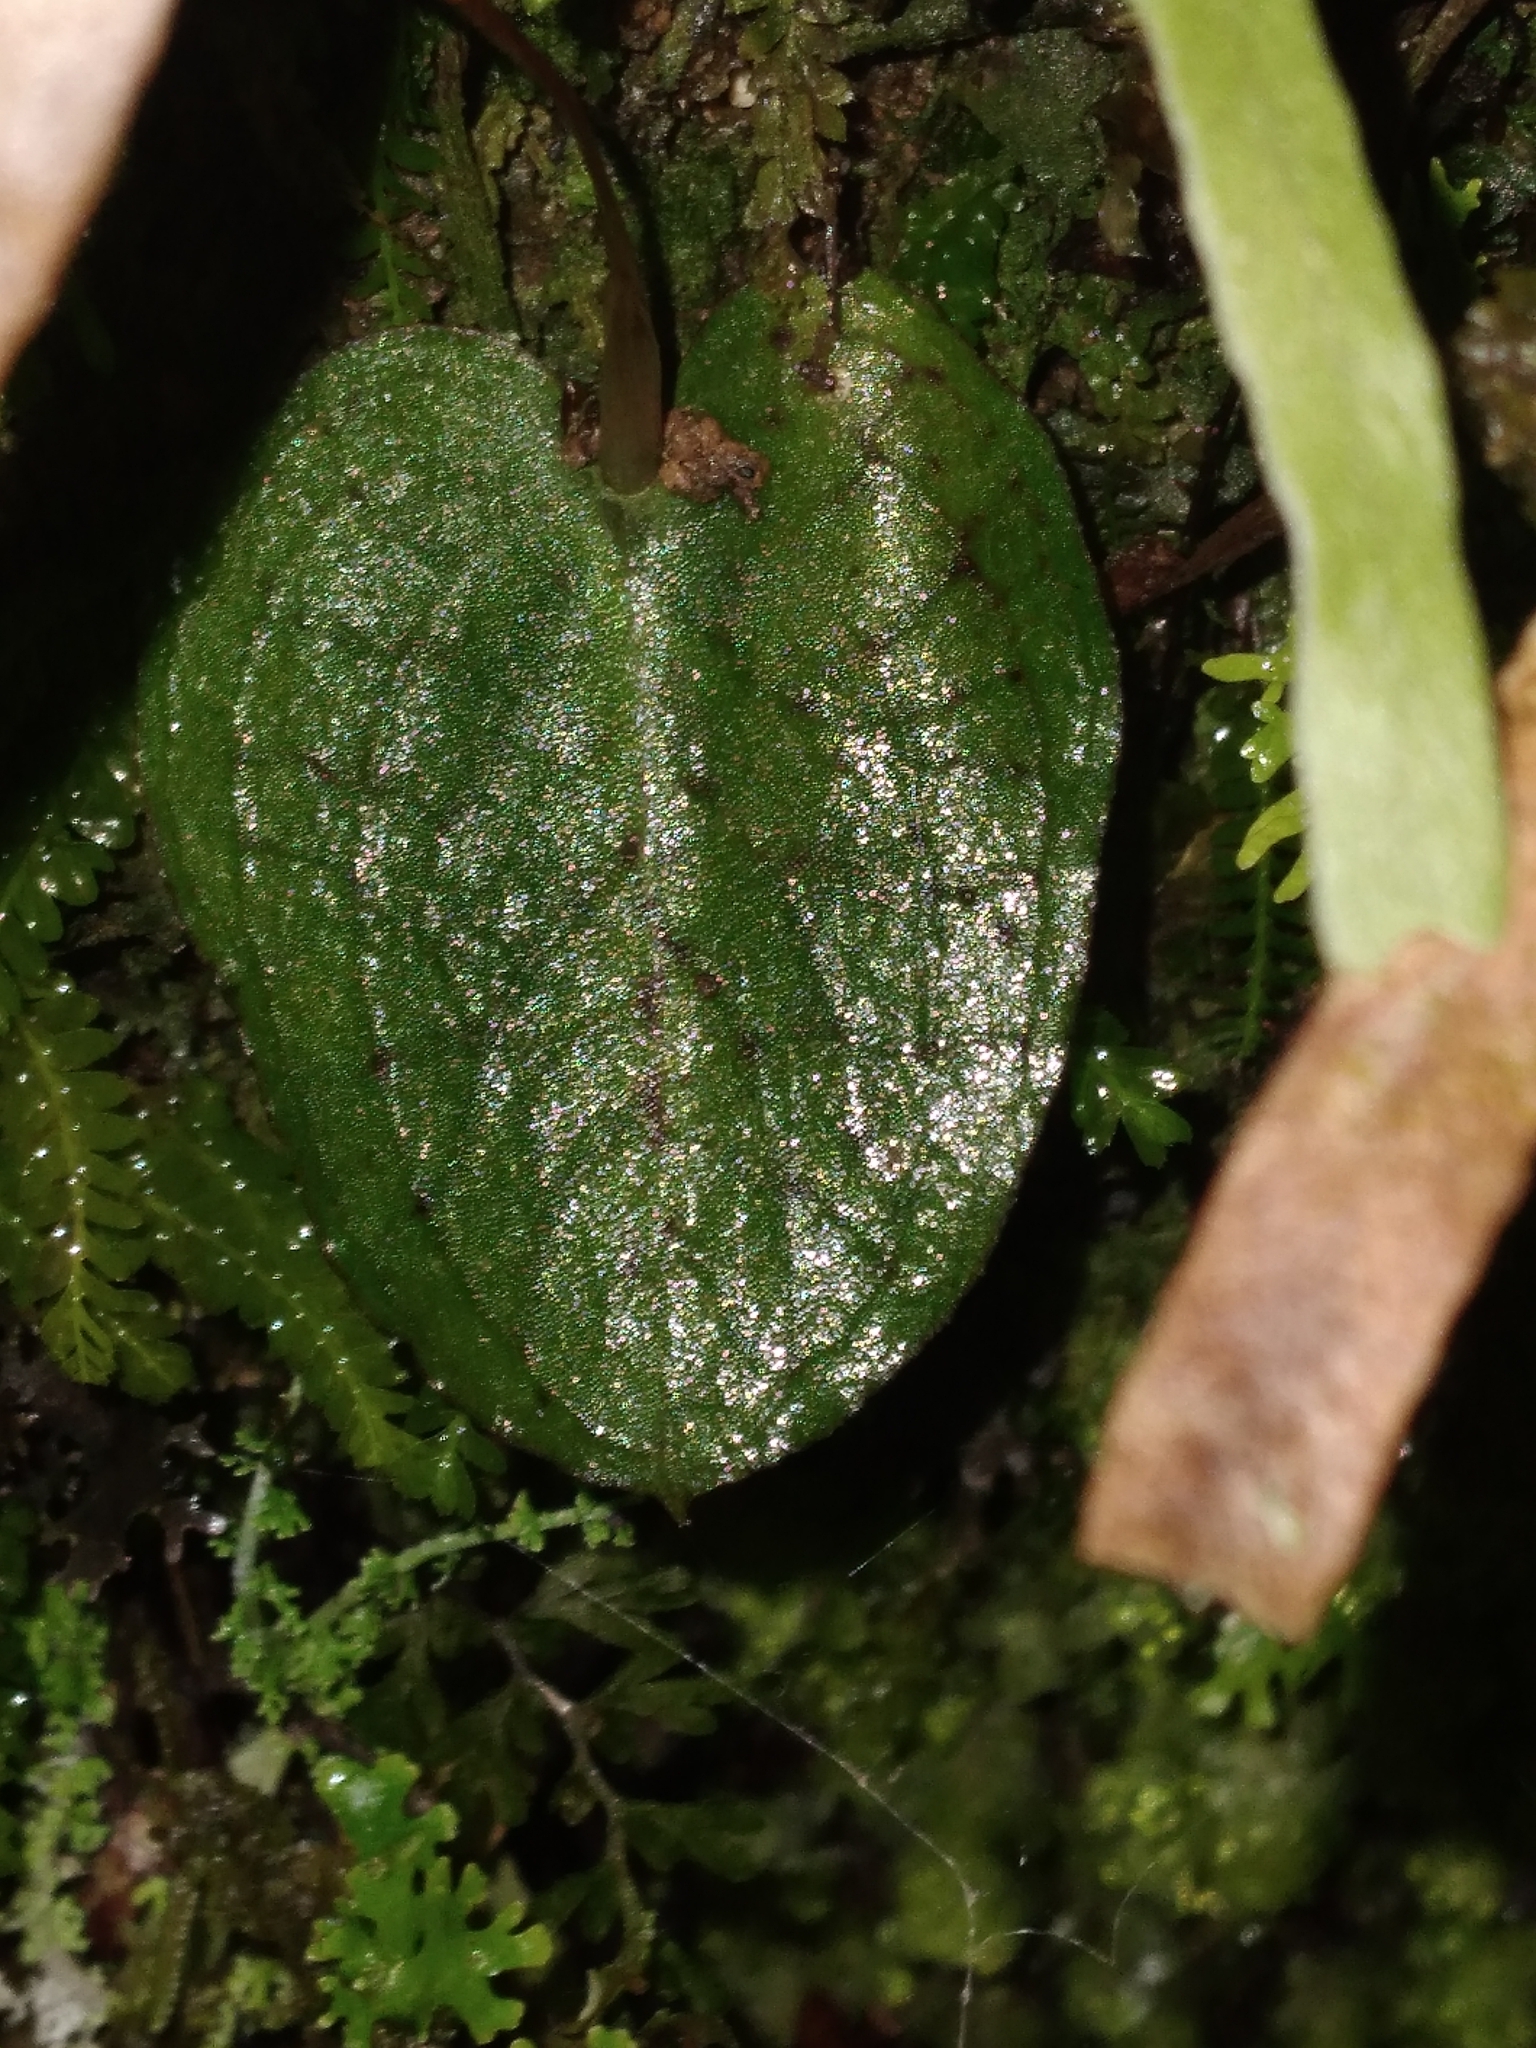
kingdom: Plantae
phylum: Tracheophyta
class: Liliopsida
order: Asparagales
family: Orchidaceae
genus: Corybas
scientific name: Corybas oblongus
